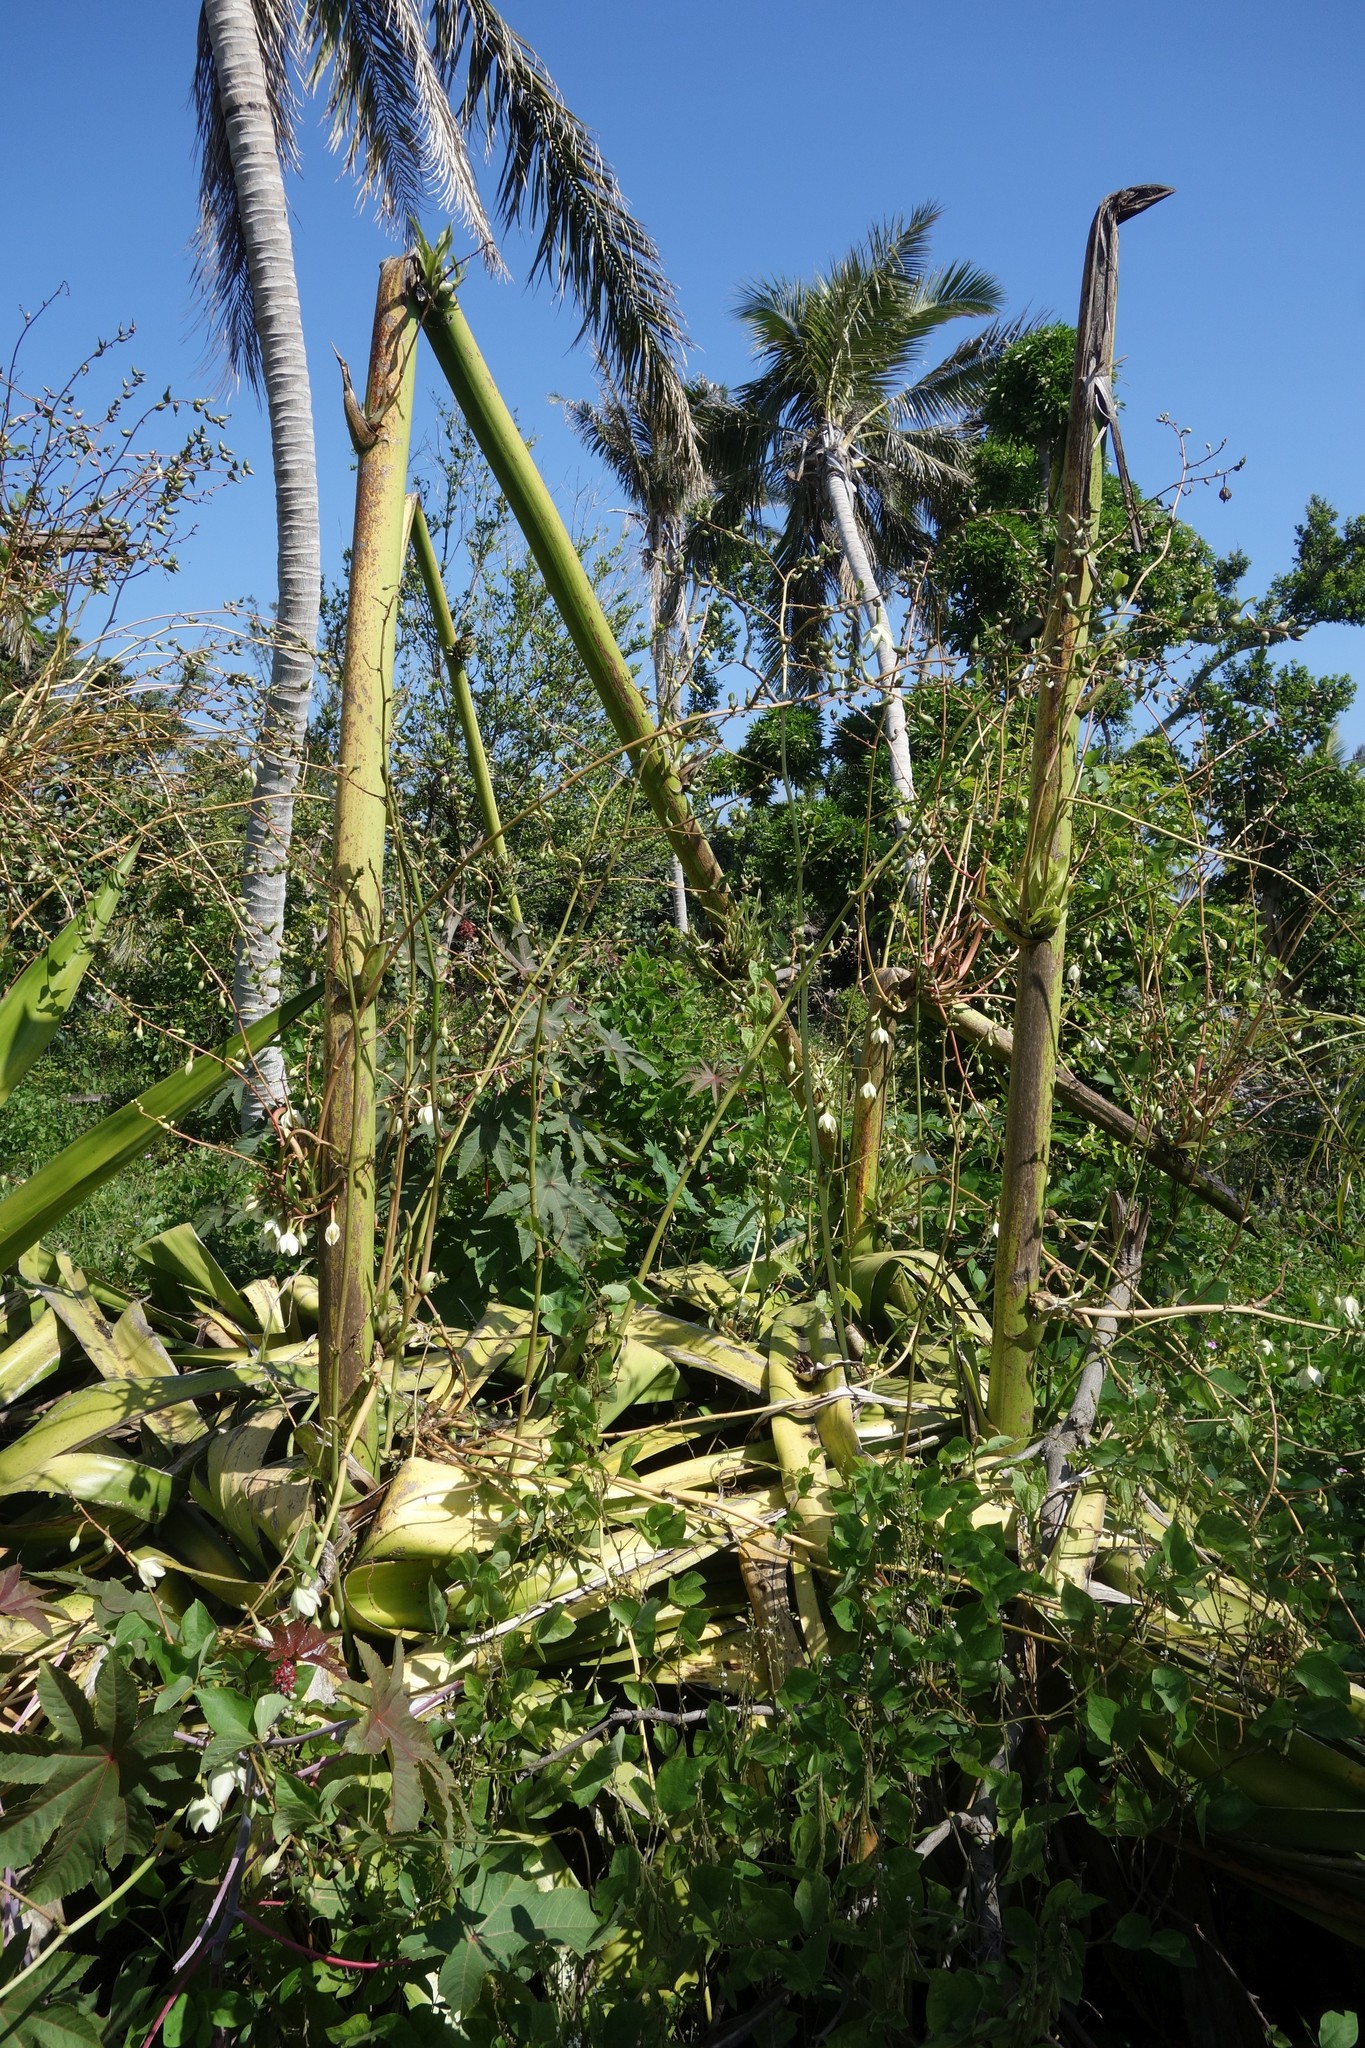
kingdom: Plantae
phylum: Tracheophyta
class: Liliopsida
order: Asparagales
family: Asparagaceae
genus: Furcraea
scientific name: Furcraea foetida
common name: Mauritius hemp
